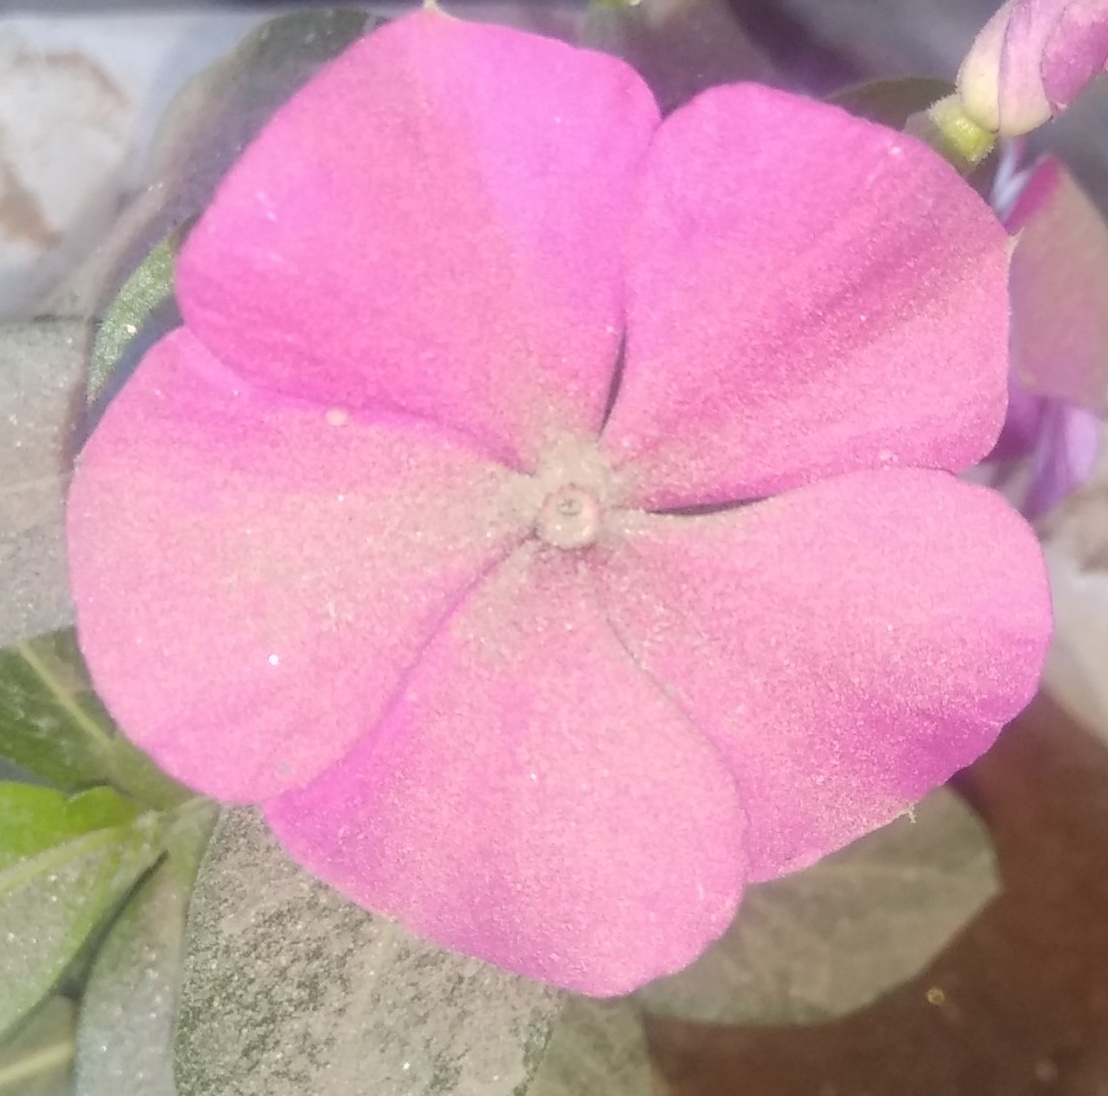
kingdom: Plantae
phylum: Tracheophyta
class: Magnoliopsida
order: Gentianales
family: Apocynaceae
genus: Catharanthus
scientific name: Catharanthus roseus
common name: Madagascar periwinkle
